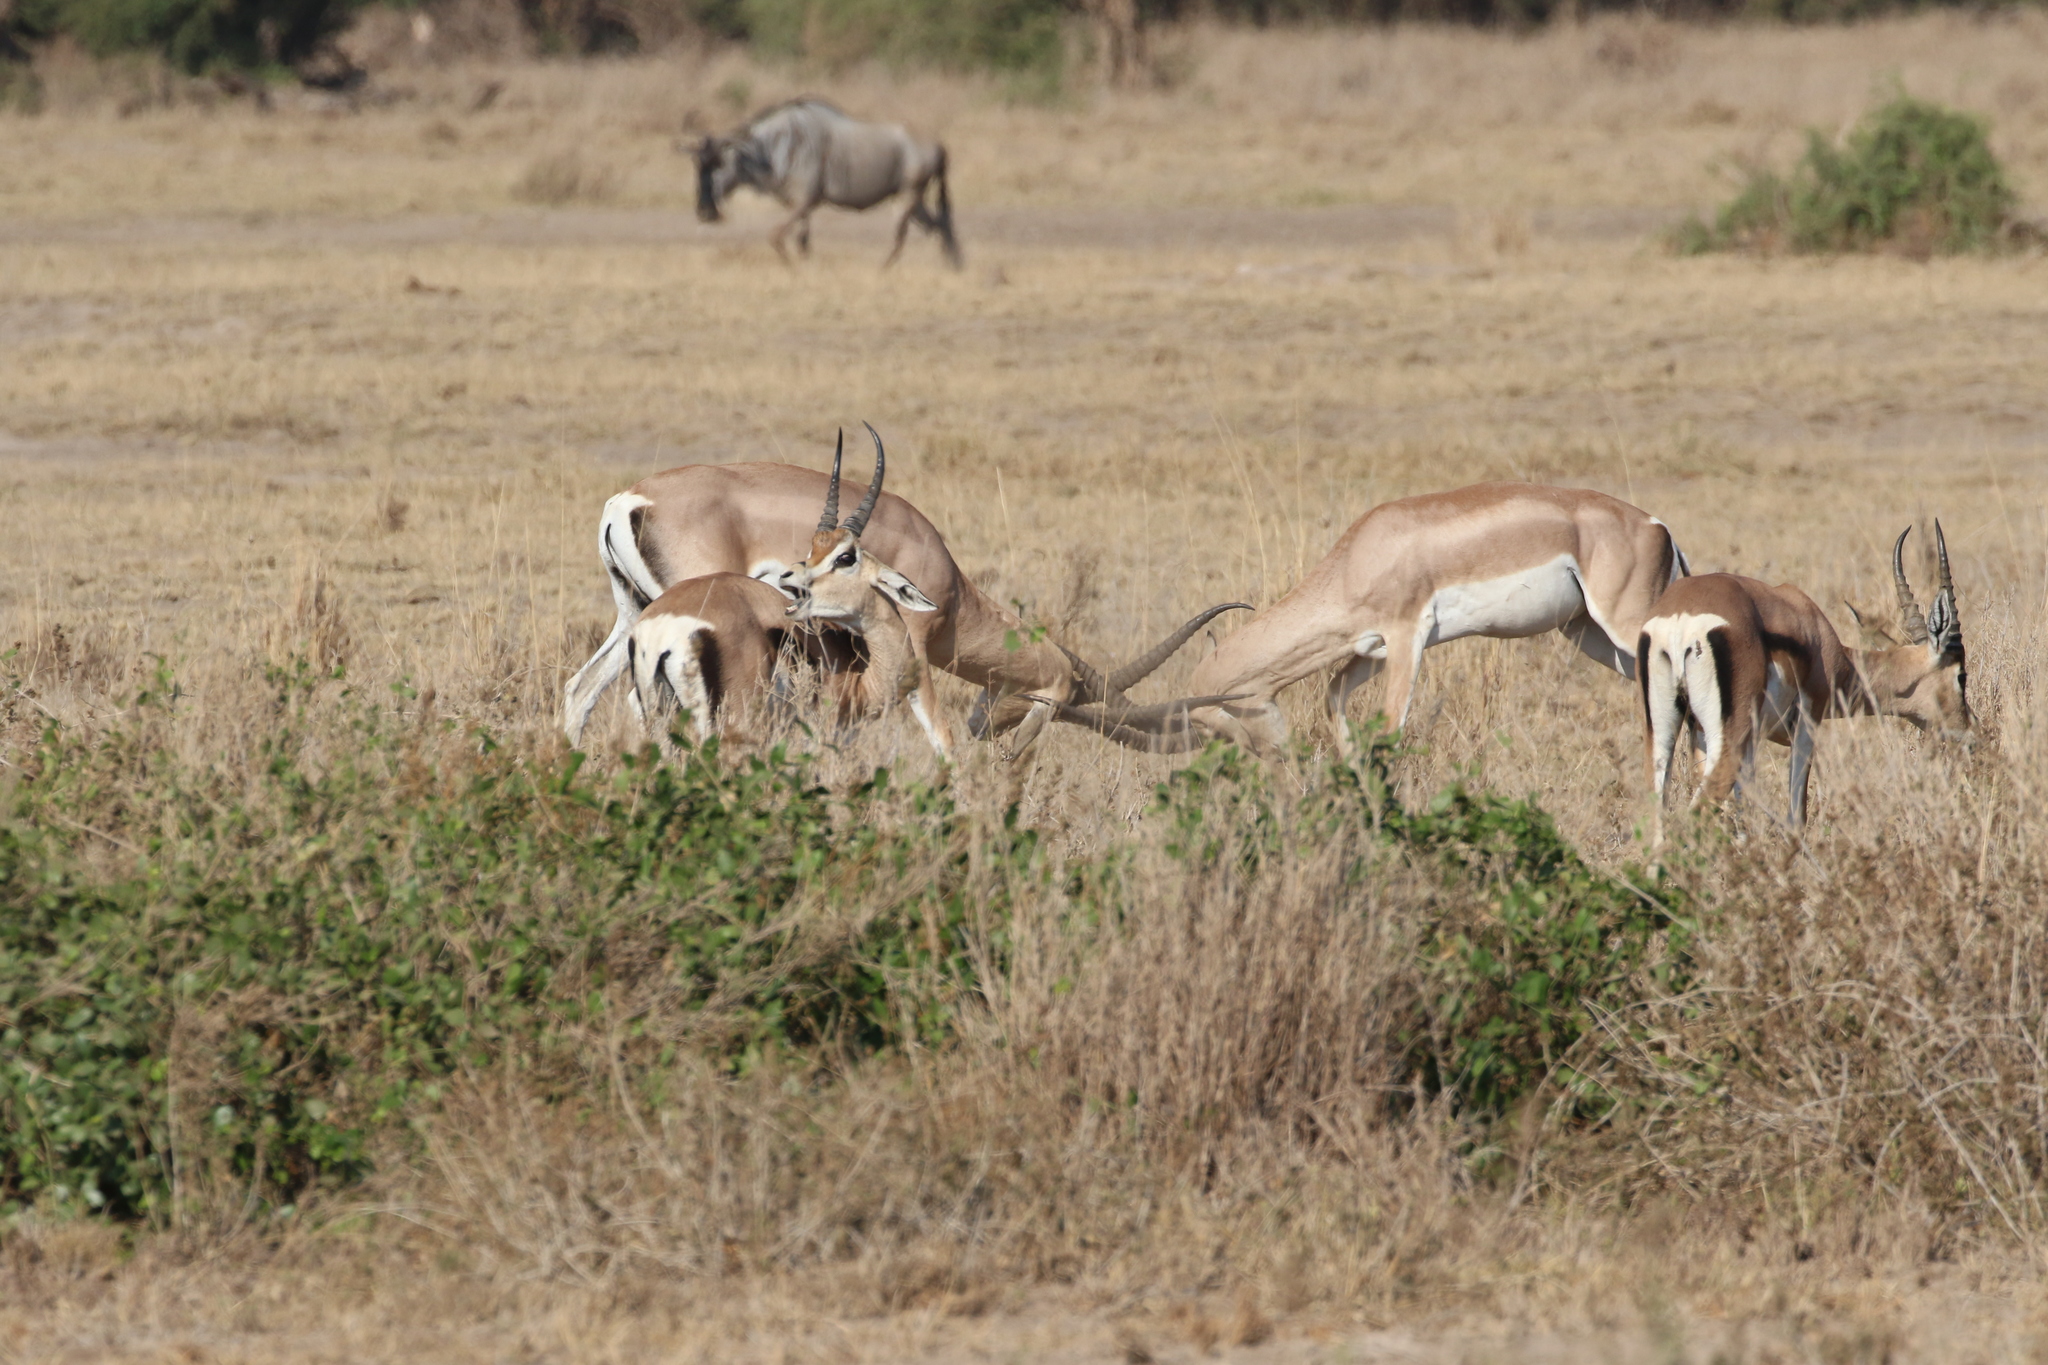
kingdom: Animalia
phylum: Chordata
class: Mammalia
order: Artiodactyla
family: Bovidae
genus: Nanger
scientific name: Nanger granti
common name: Grant's gazelle
